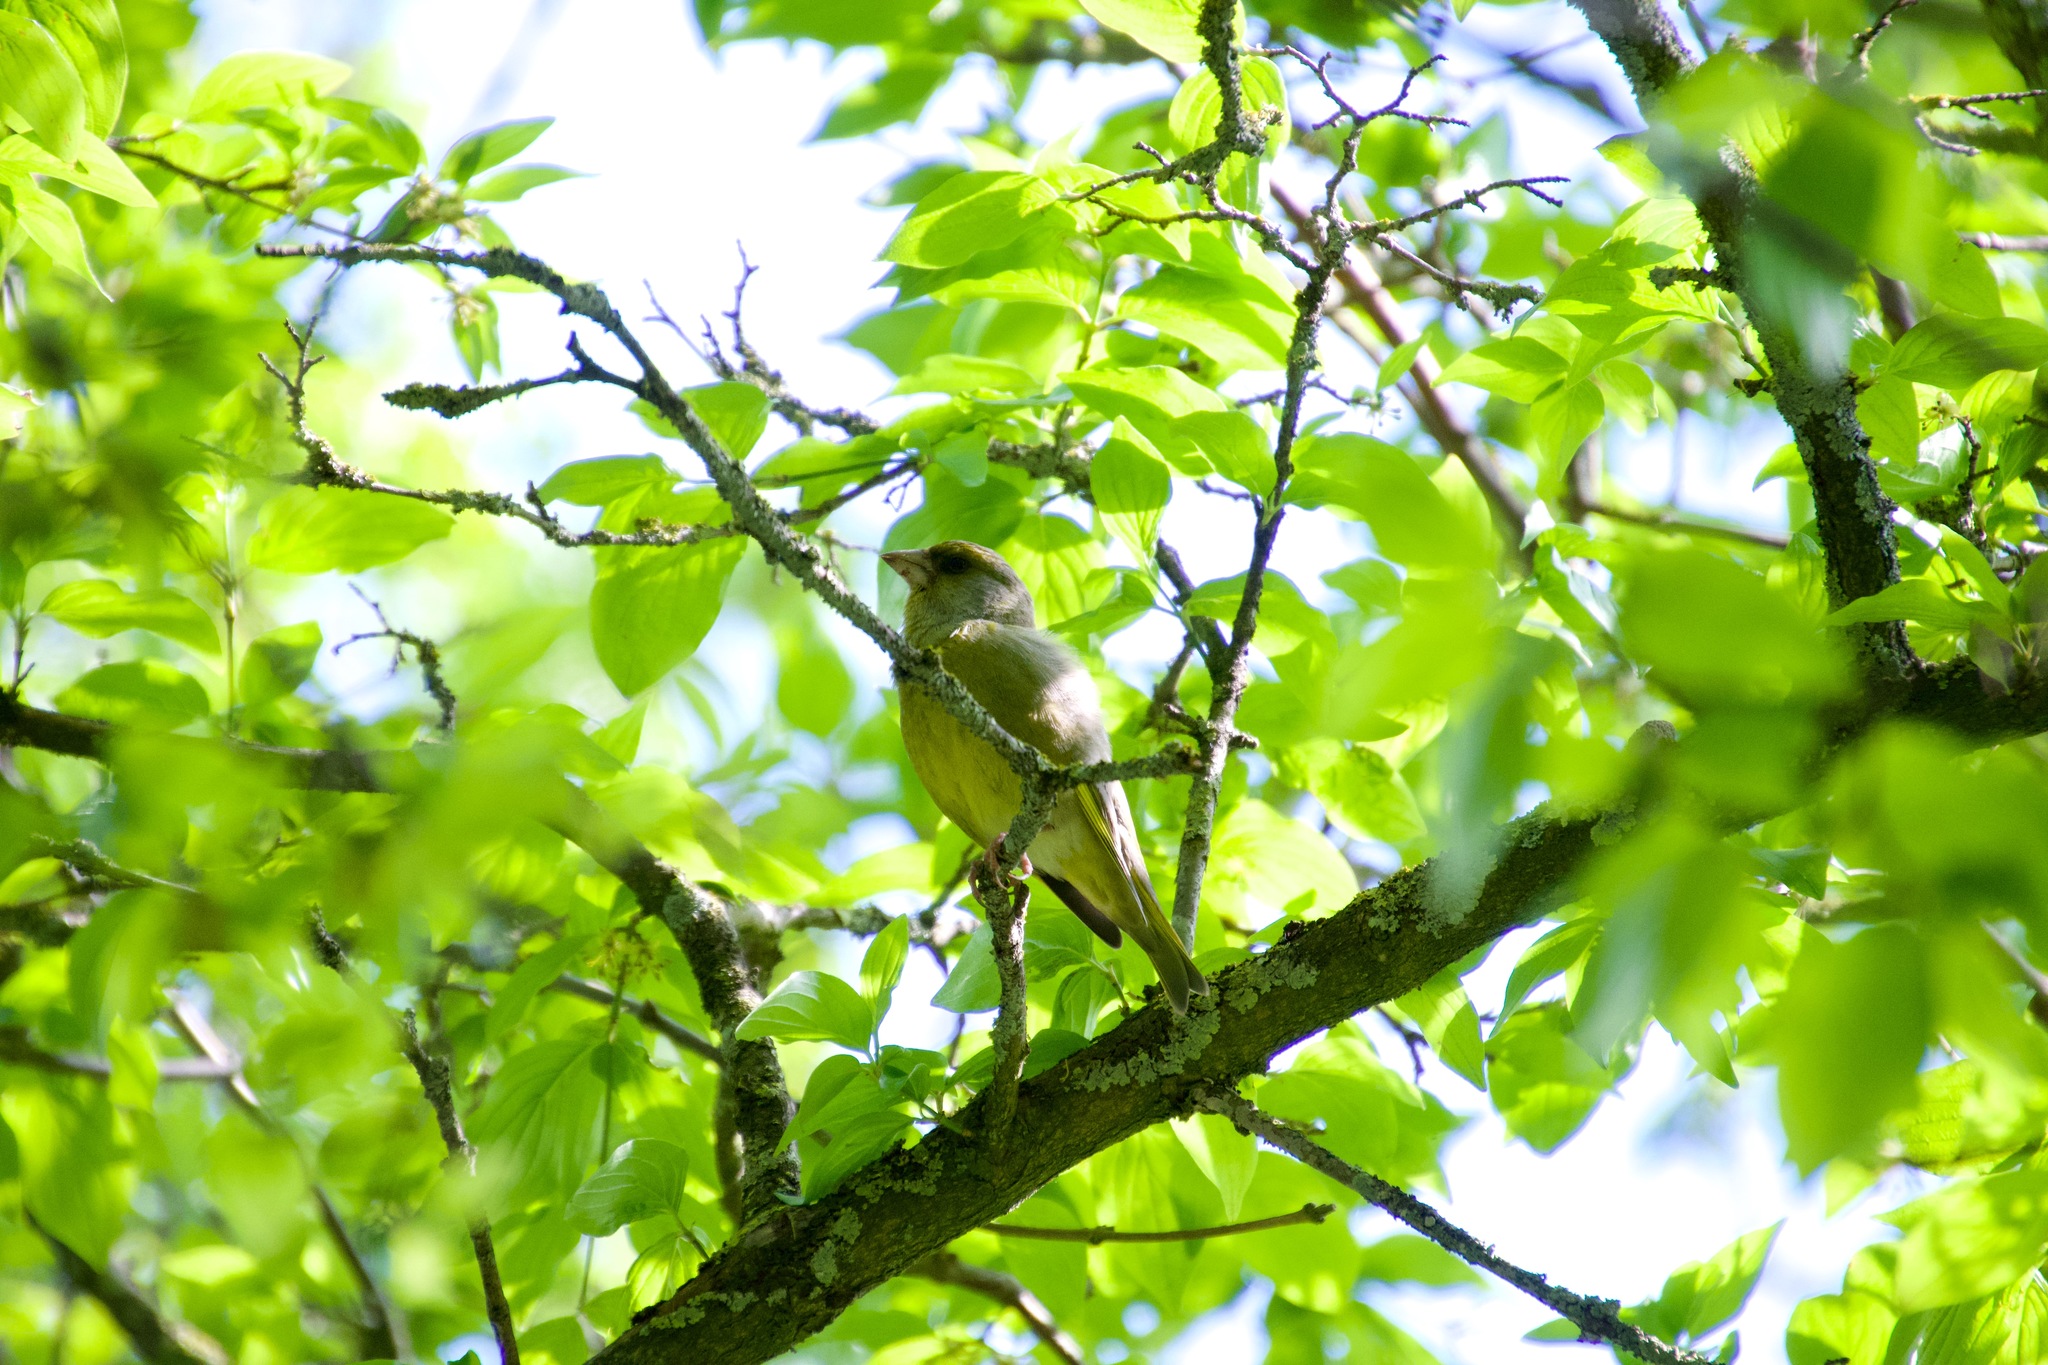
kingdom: Plantae
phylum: Tracheophyta
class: Liliopsida
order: Poales
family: Poaceae
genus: Chloris
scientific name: Chloris chloris
